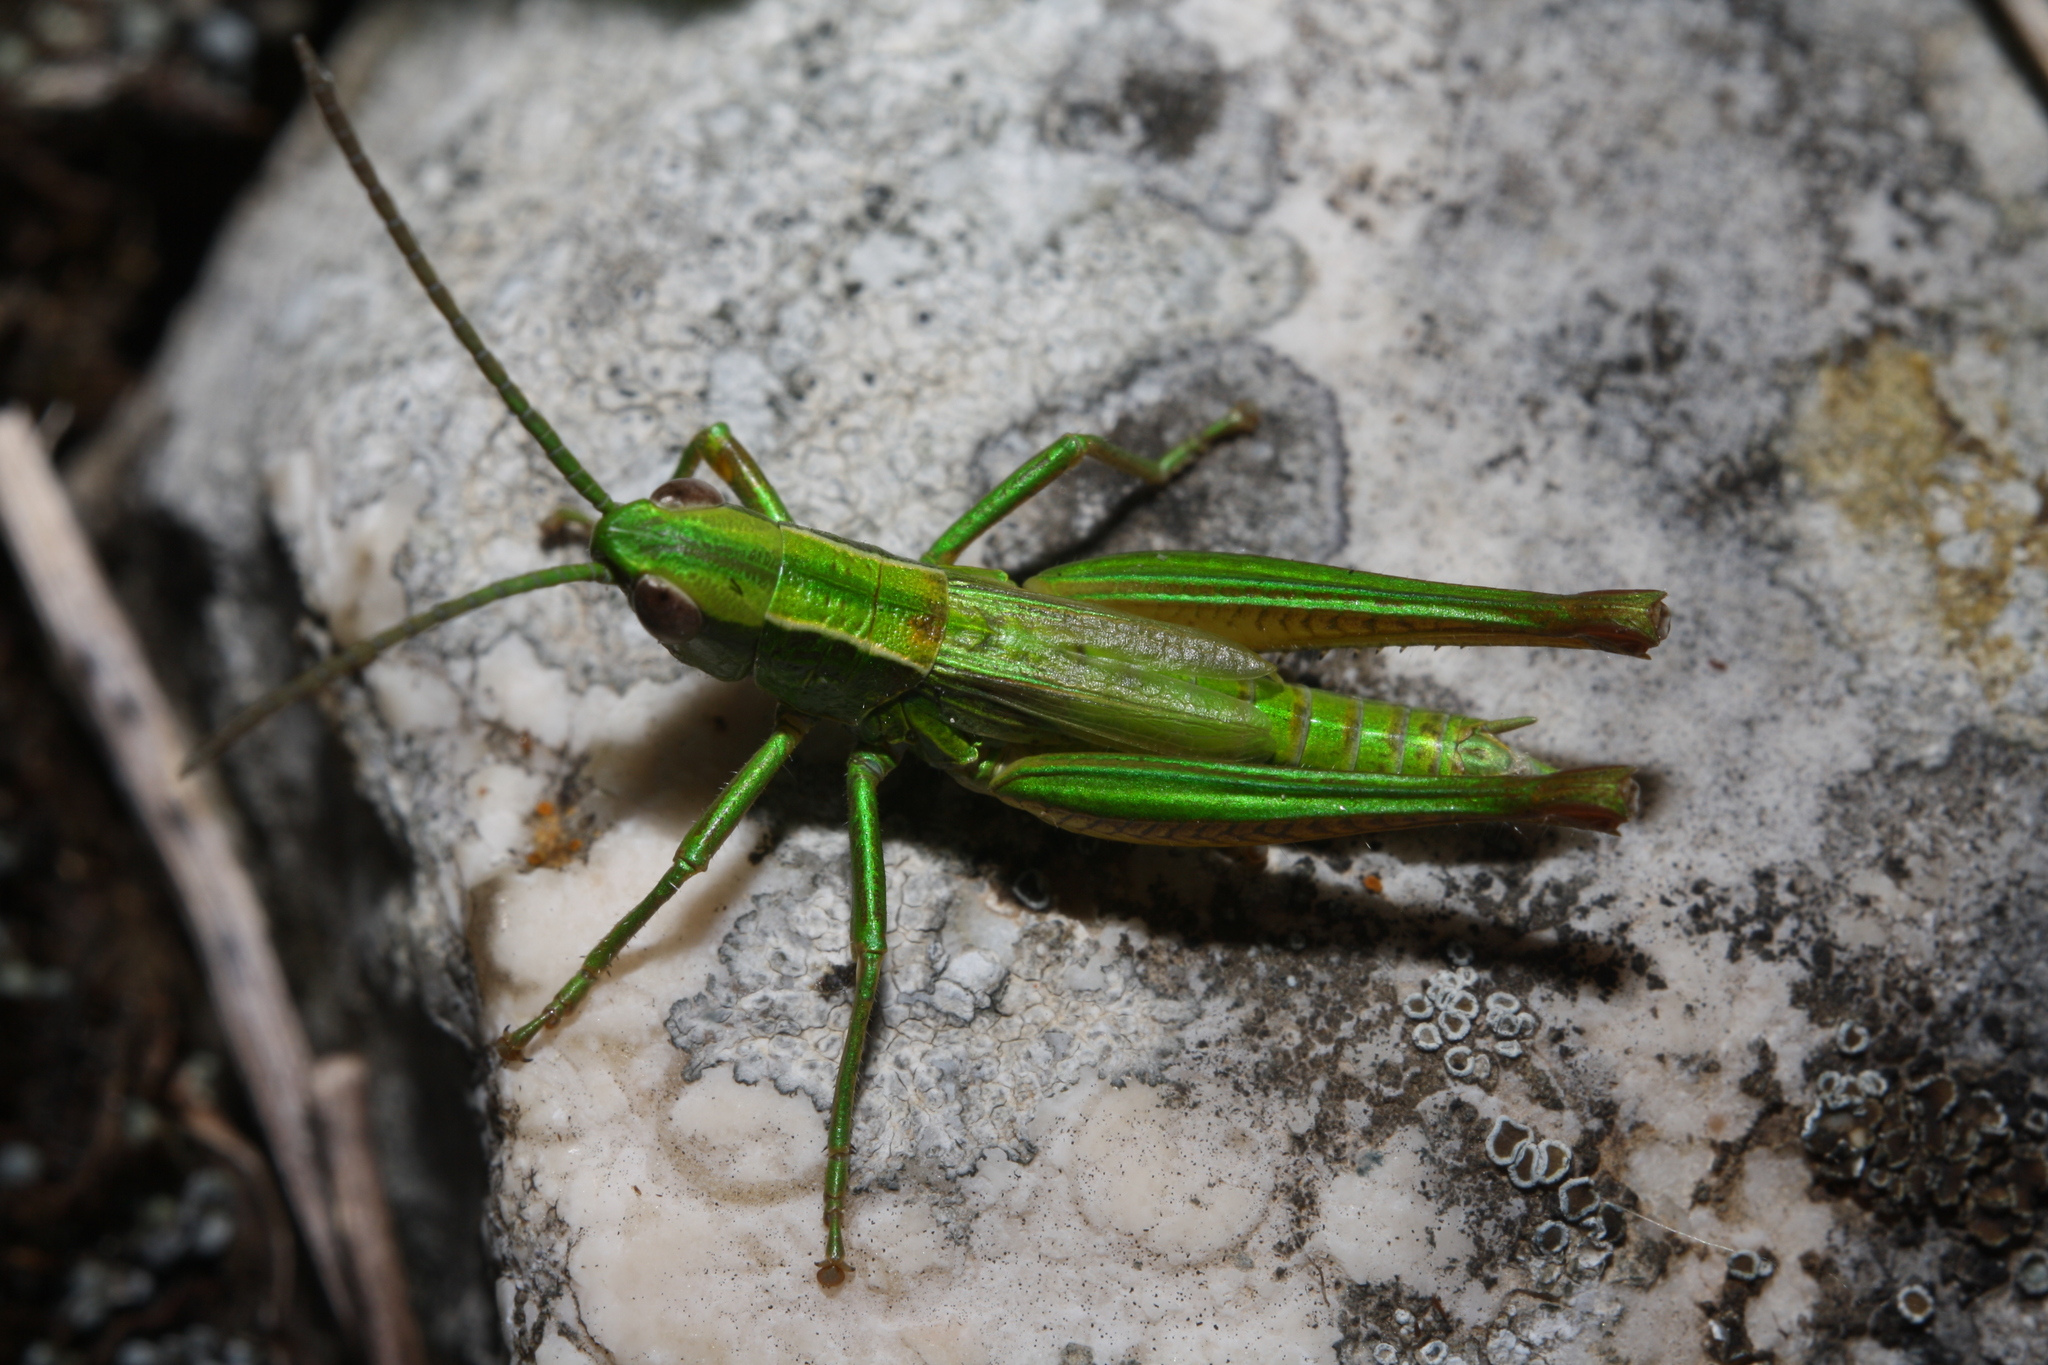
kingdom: Animalia
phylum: Arthropoda
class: Insecta
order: Orthoptera
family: Acrididae
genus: Euthystira
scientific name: Euthystira brachyptera
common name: Small gold grasshopper
